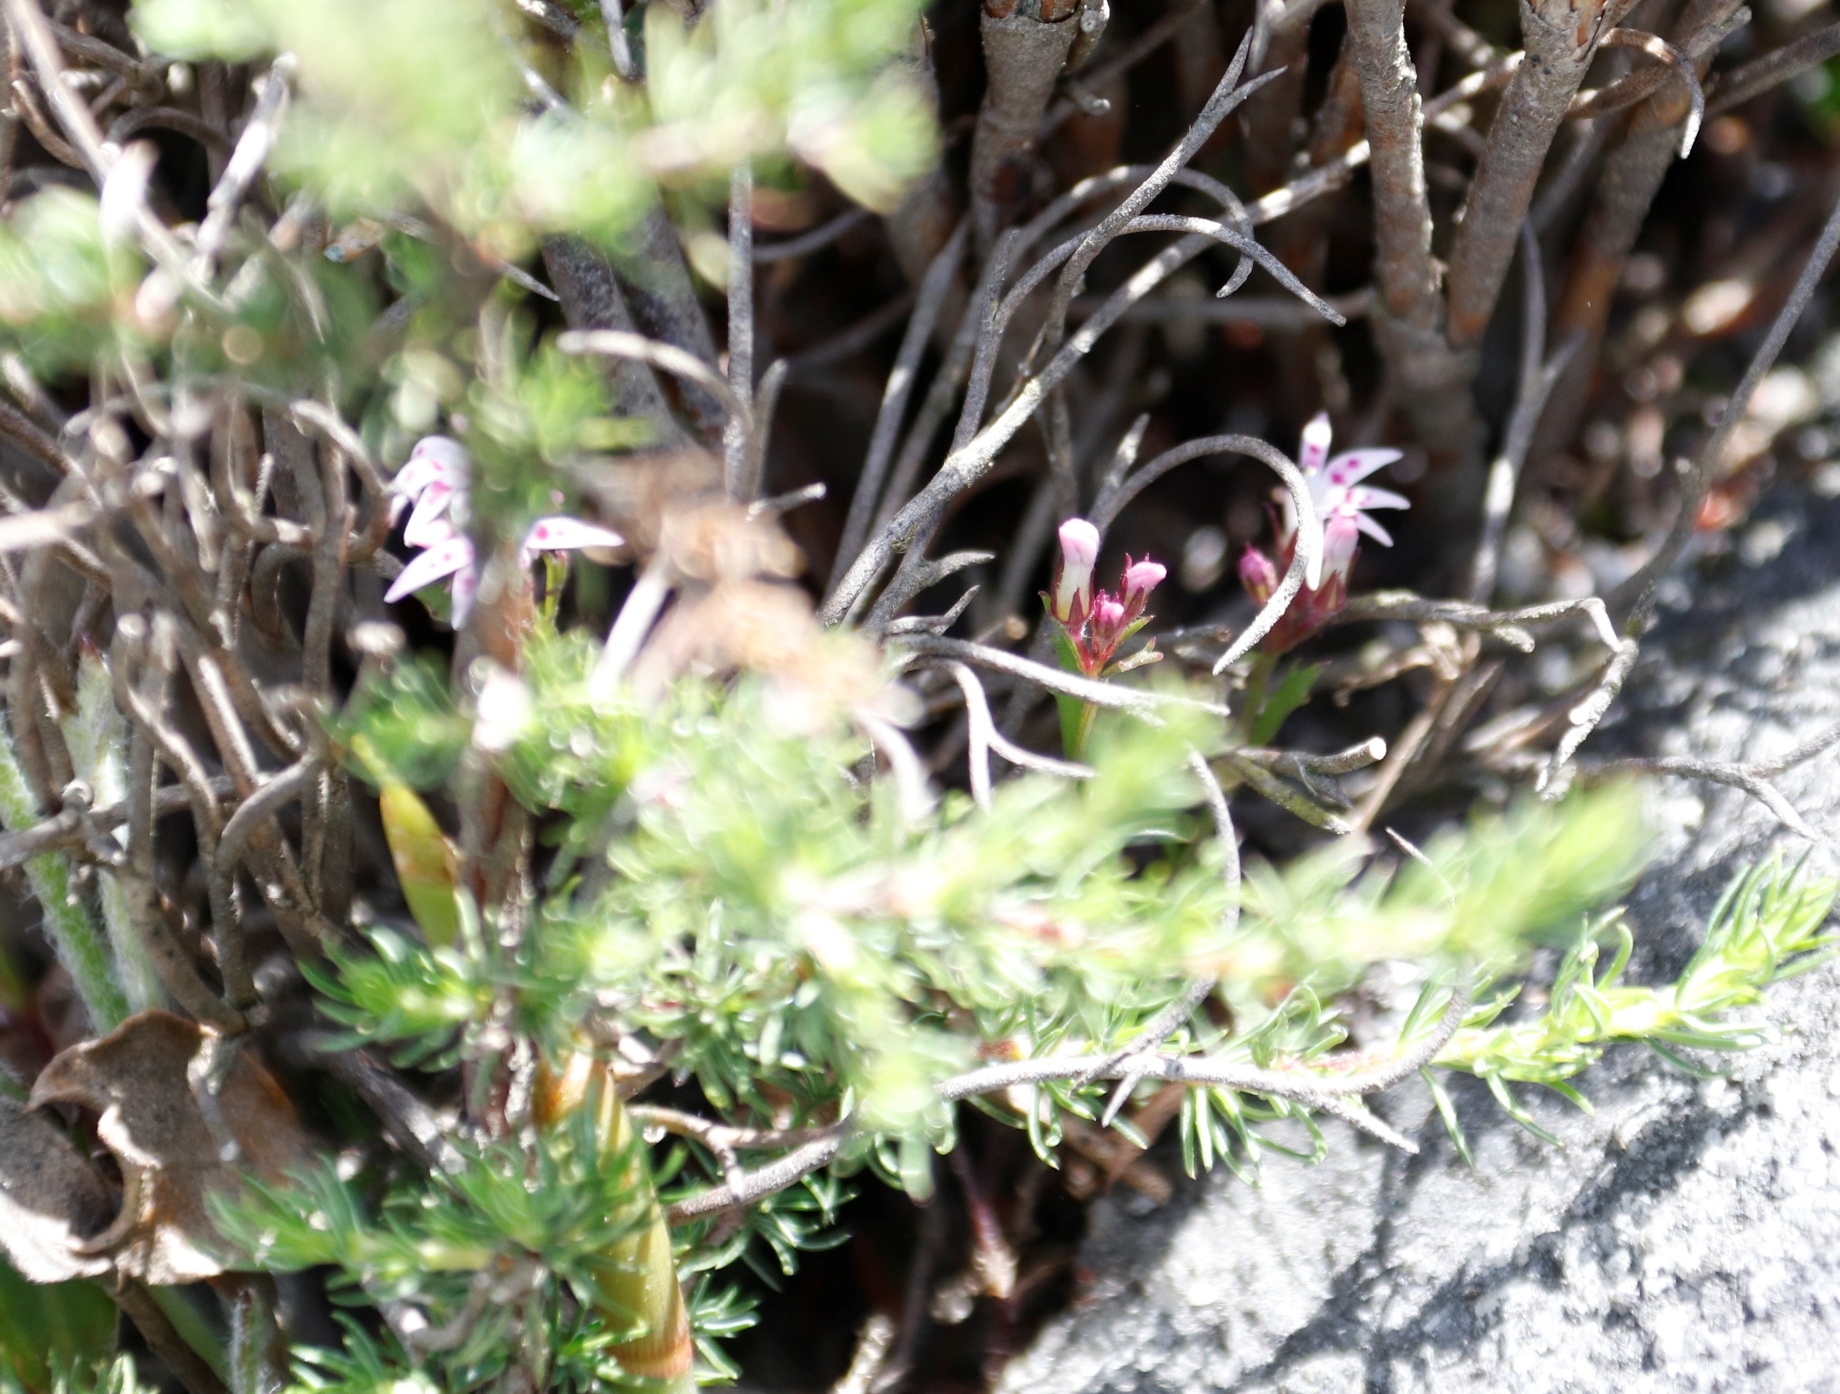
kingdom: Plantae
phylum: Tracheophyta
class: Magnoliopsida
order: Asterales
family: Campanulaceae
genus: Lobelia
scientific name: Lobelia jasionoides
